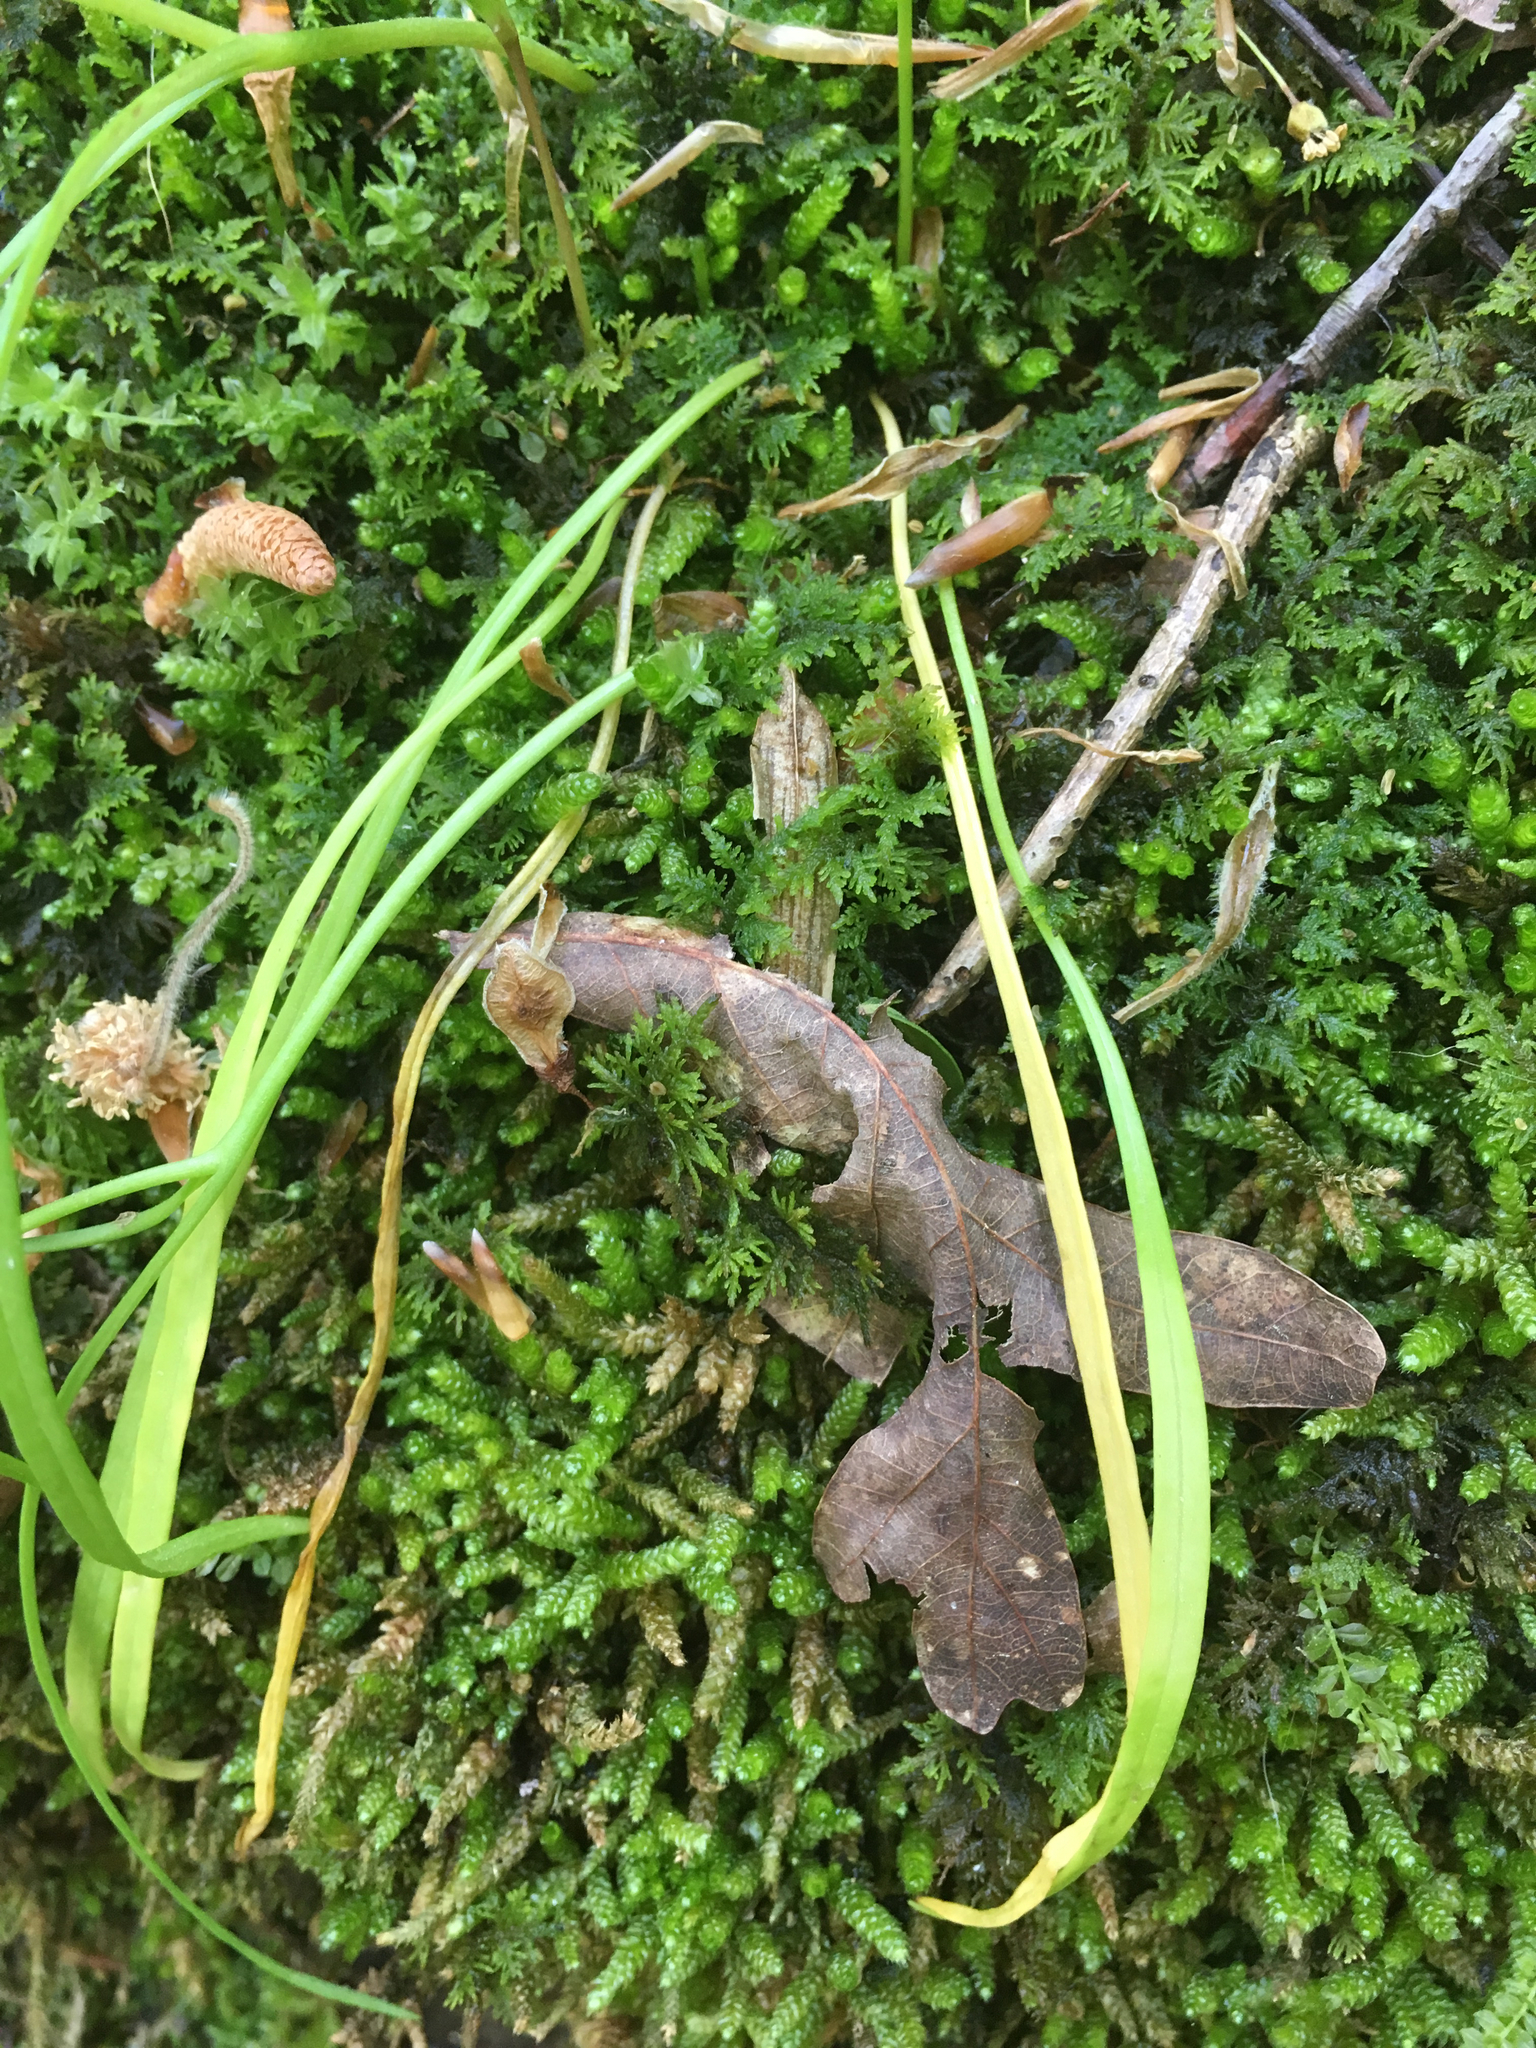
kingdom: Plantae
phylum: Tracheophyta
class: Magnoliopsida
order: Caryophyllales
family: Montiaceae
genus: Claytonia
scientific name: Claytonia virginica
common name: Virginia springbeauty
